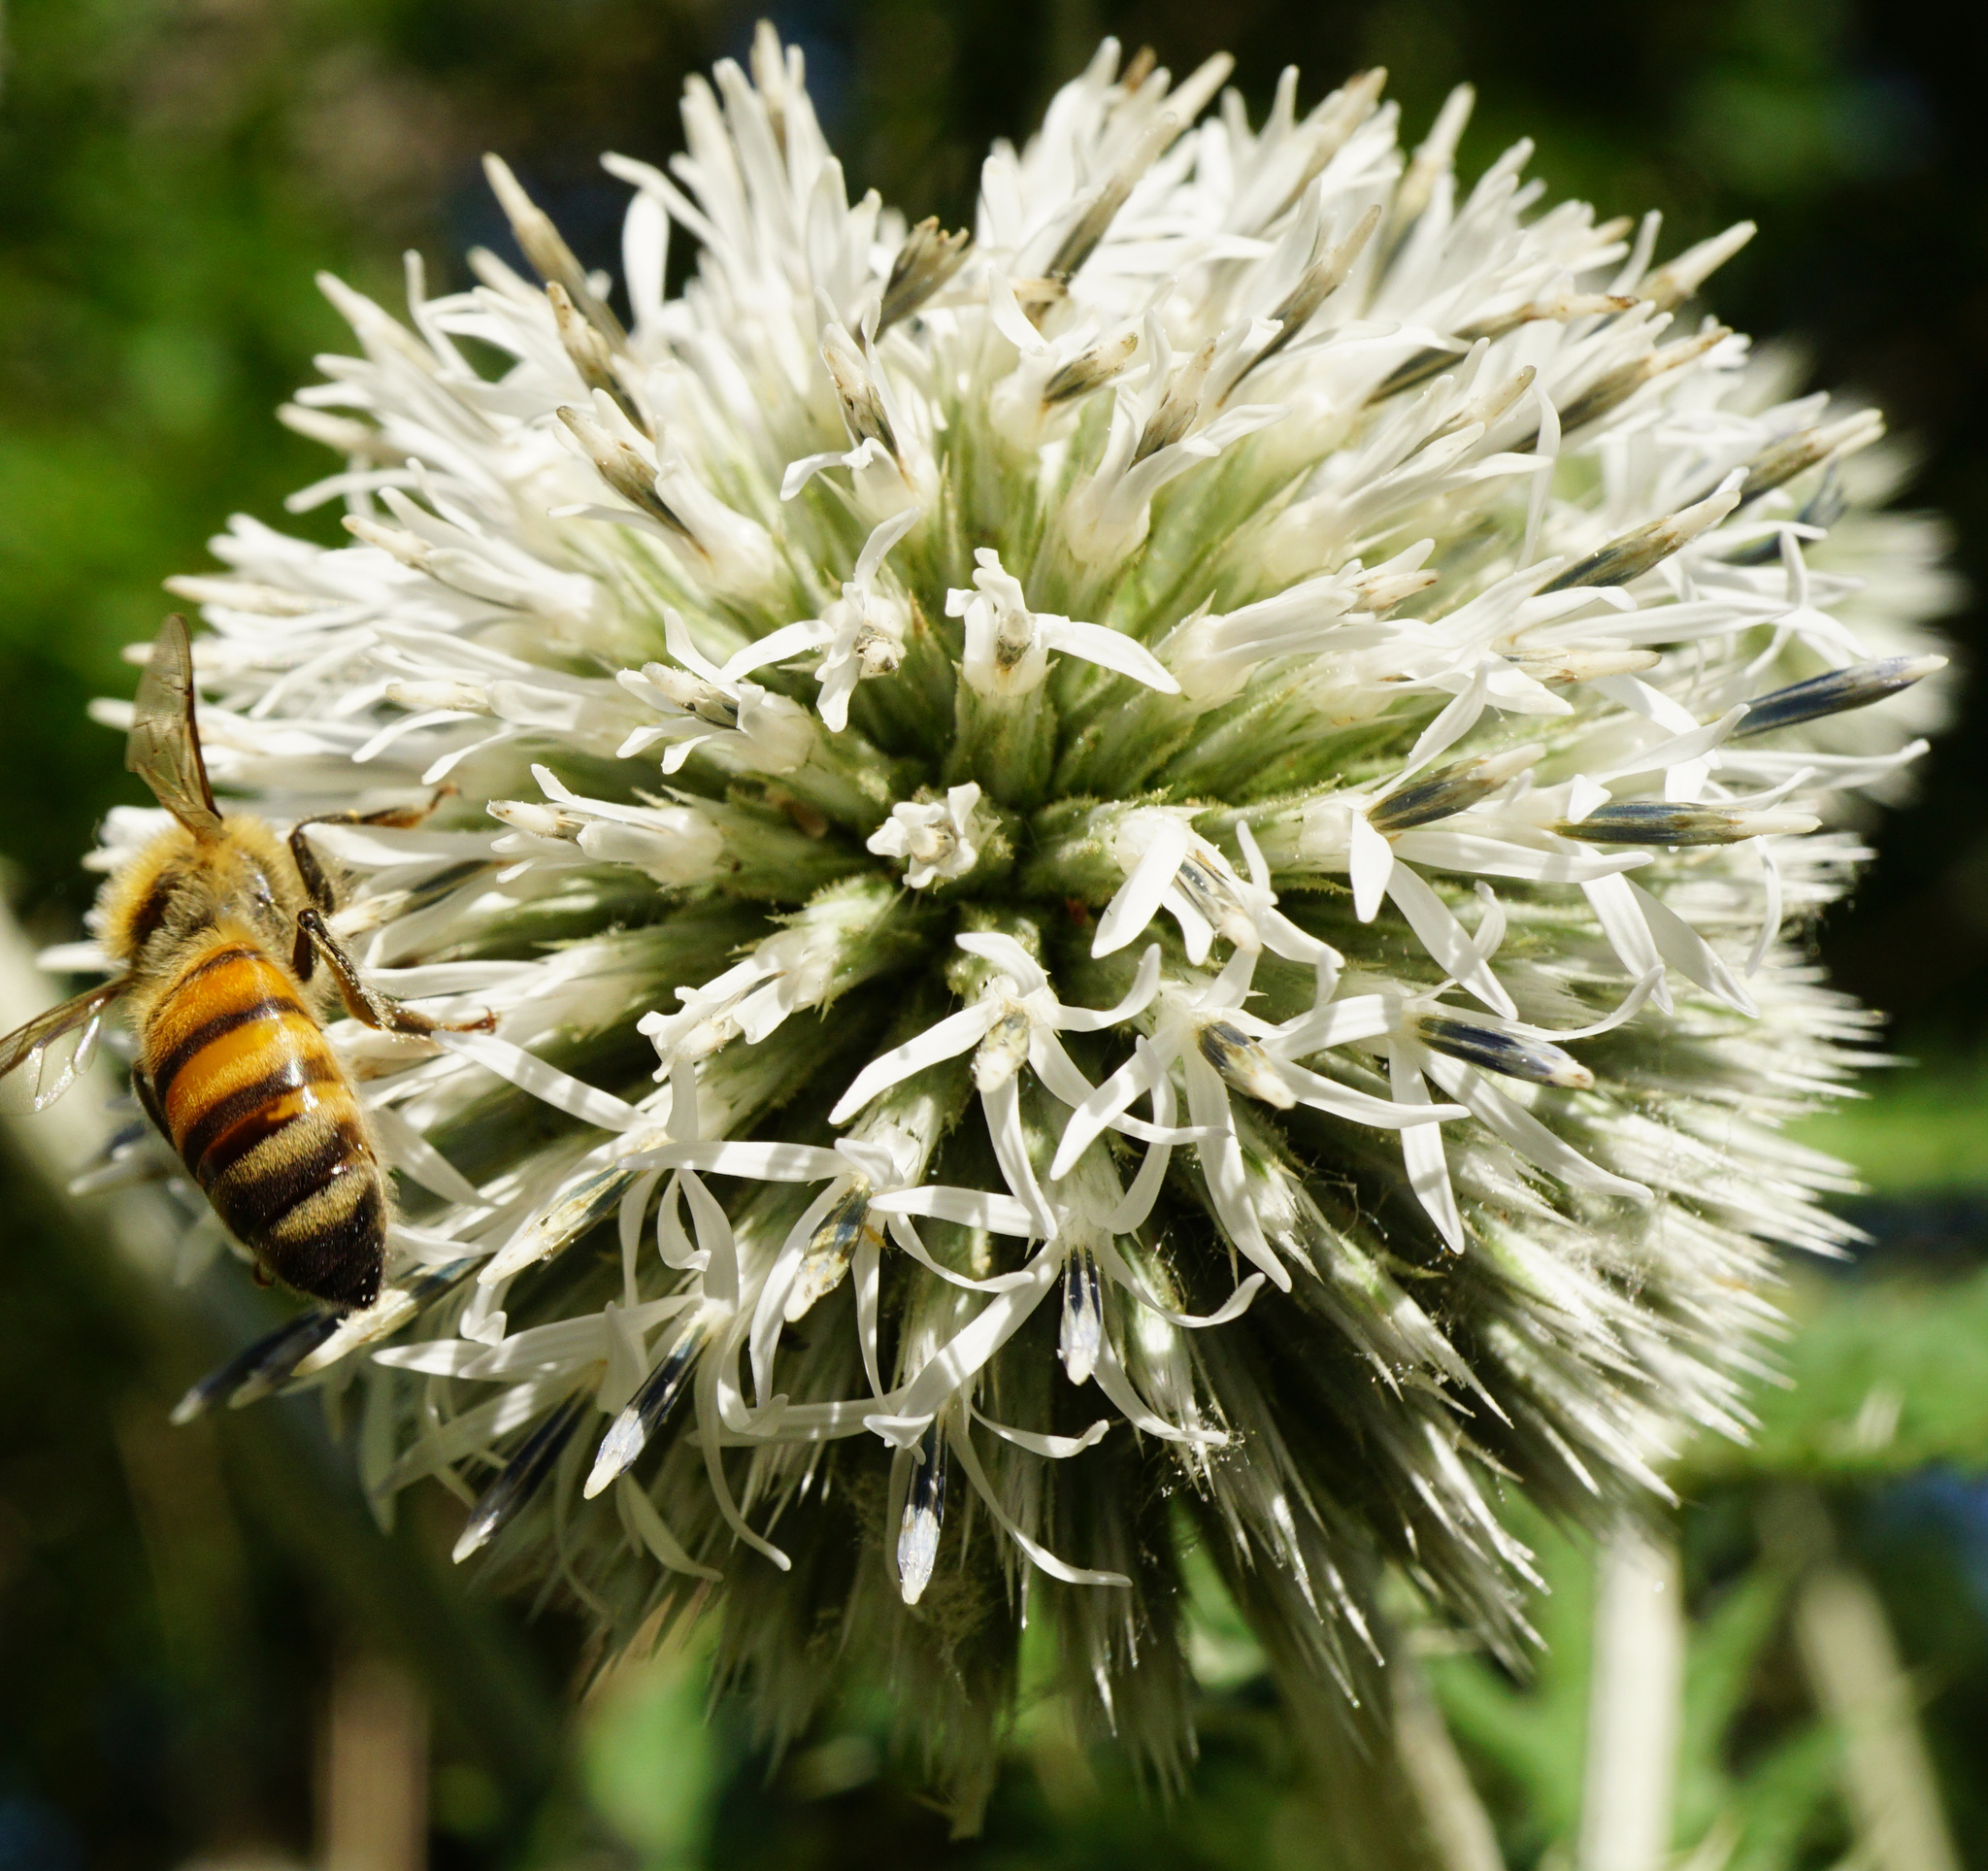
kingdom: Plantae
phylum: Tracheophyta
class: Magnoliopsida
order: Asterales
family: Asteraceae
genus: Echinops
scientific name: Echinops sphaerocephalus
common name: Glandular globe-thistle
